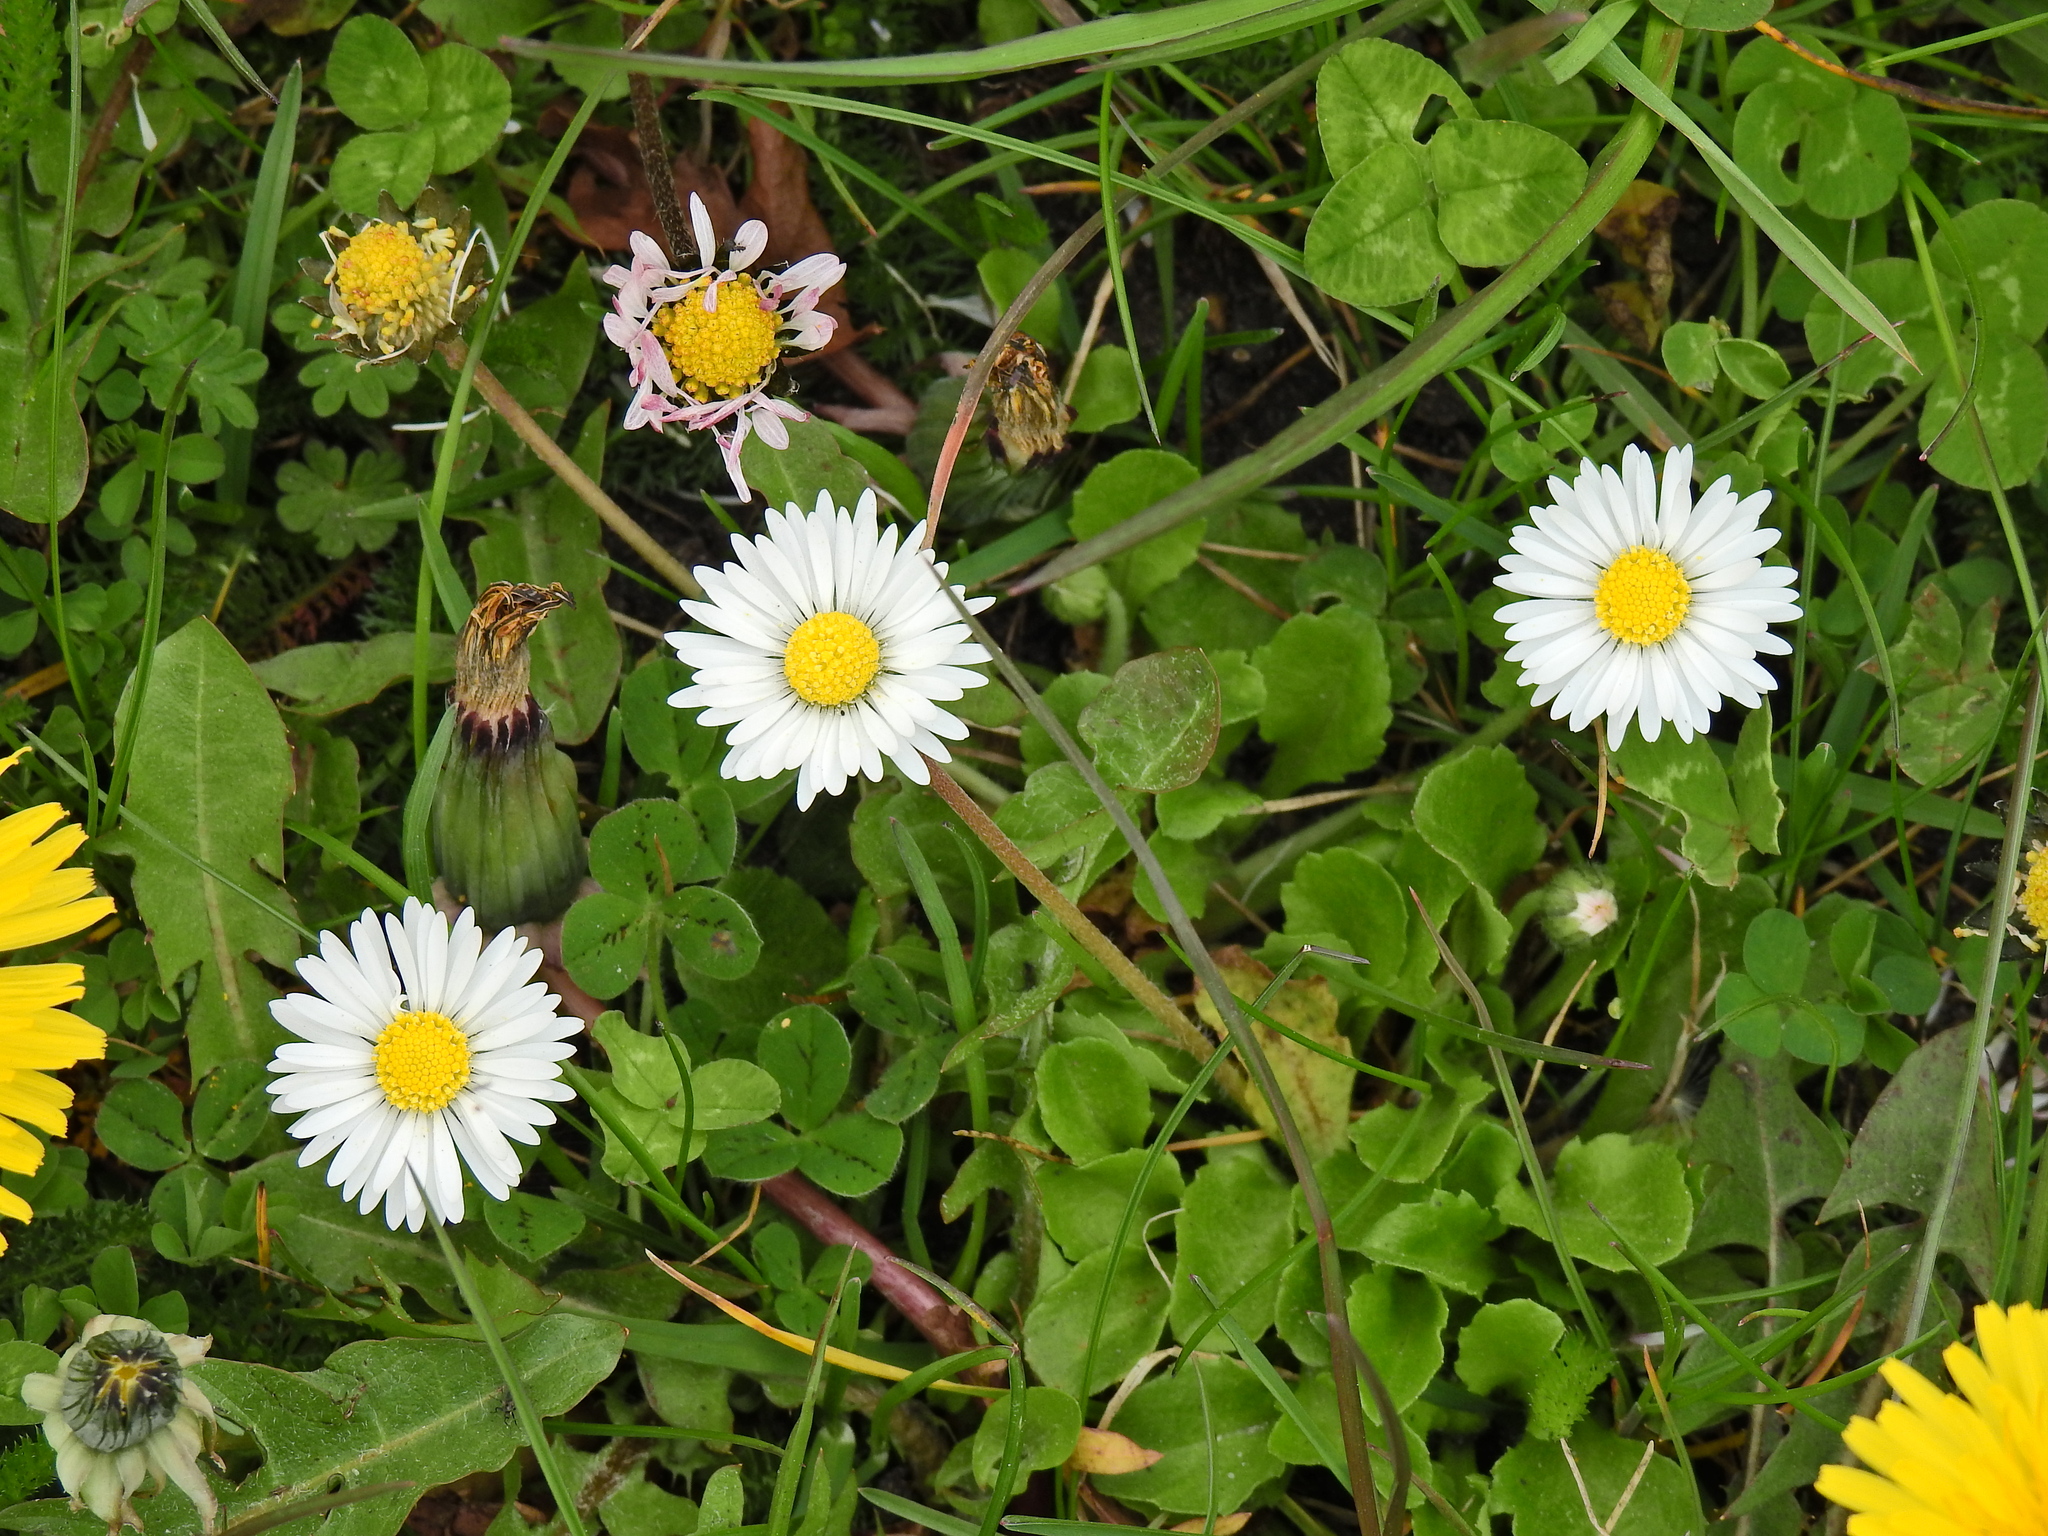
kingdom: Plantae
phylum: Tracheophyta
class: Magnoliopsida
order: Asterales
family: Asteraceae
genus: Bellis
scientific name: Bellis perennis
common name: Lawndaisy
